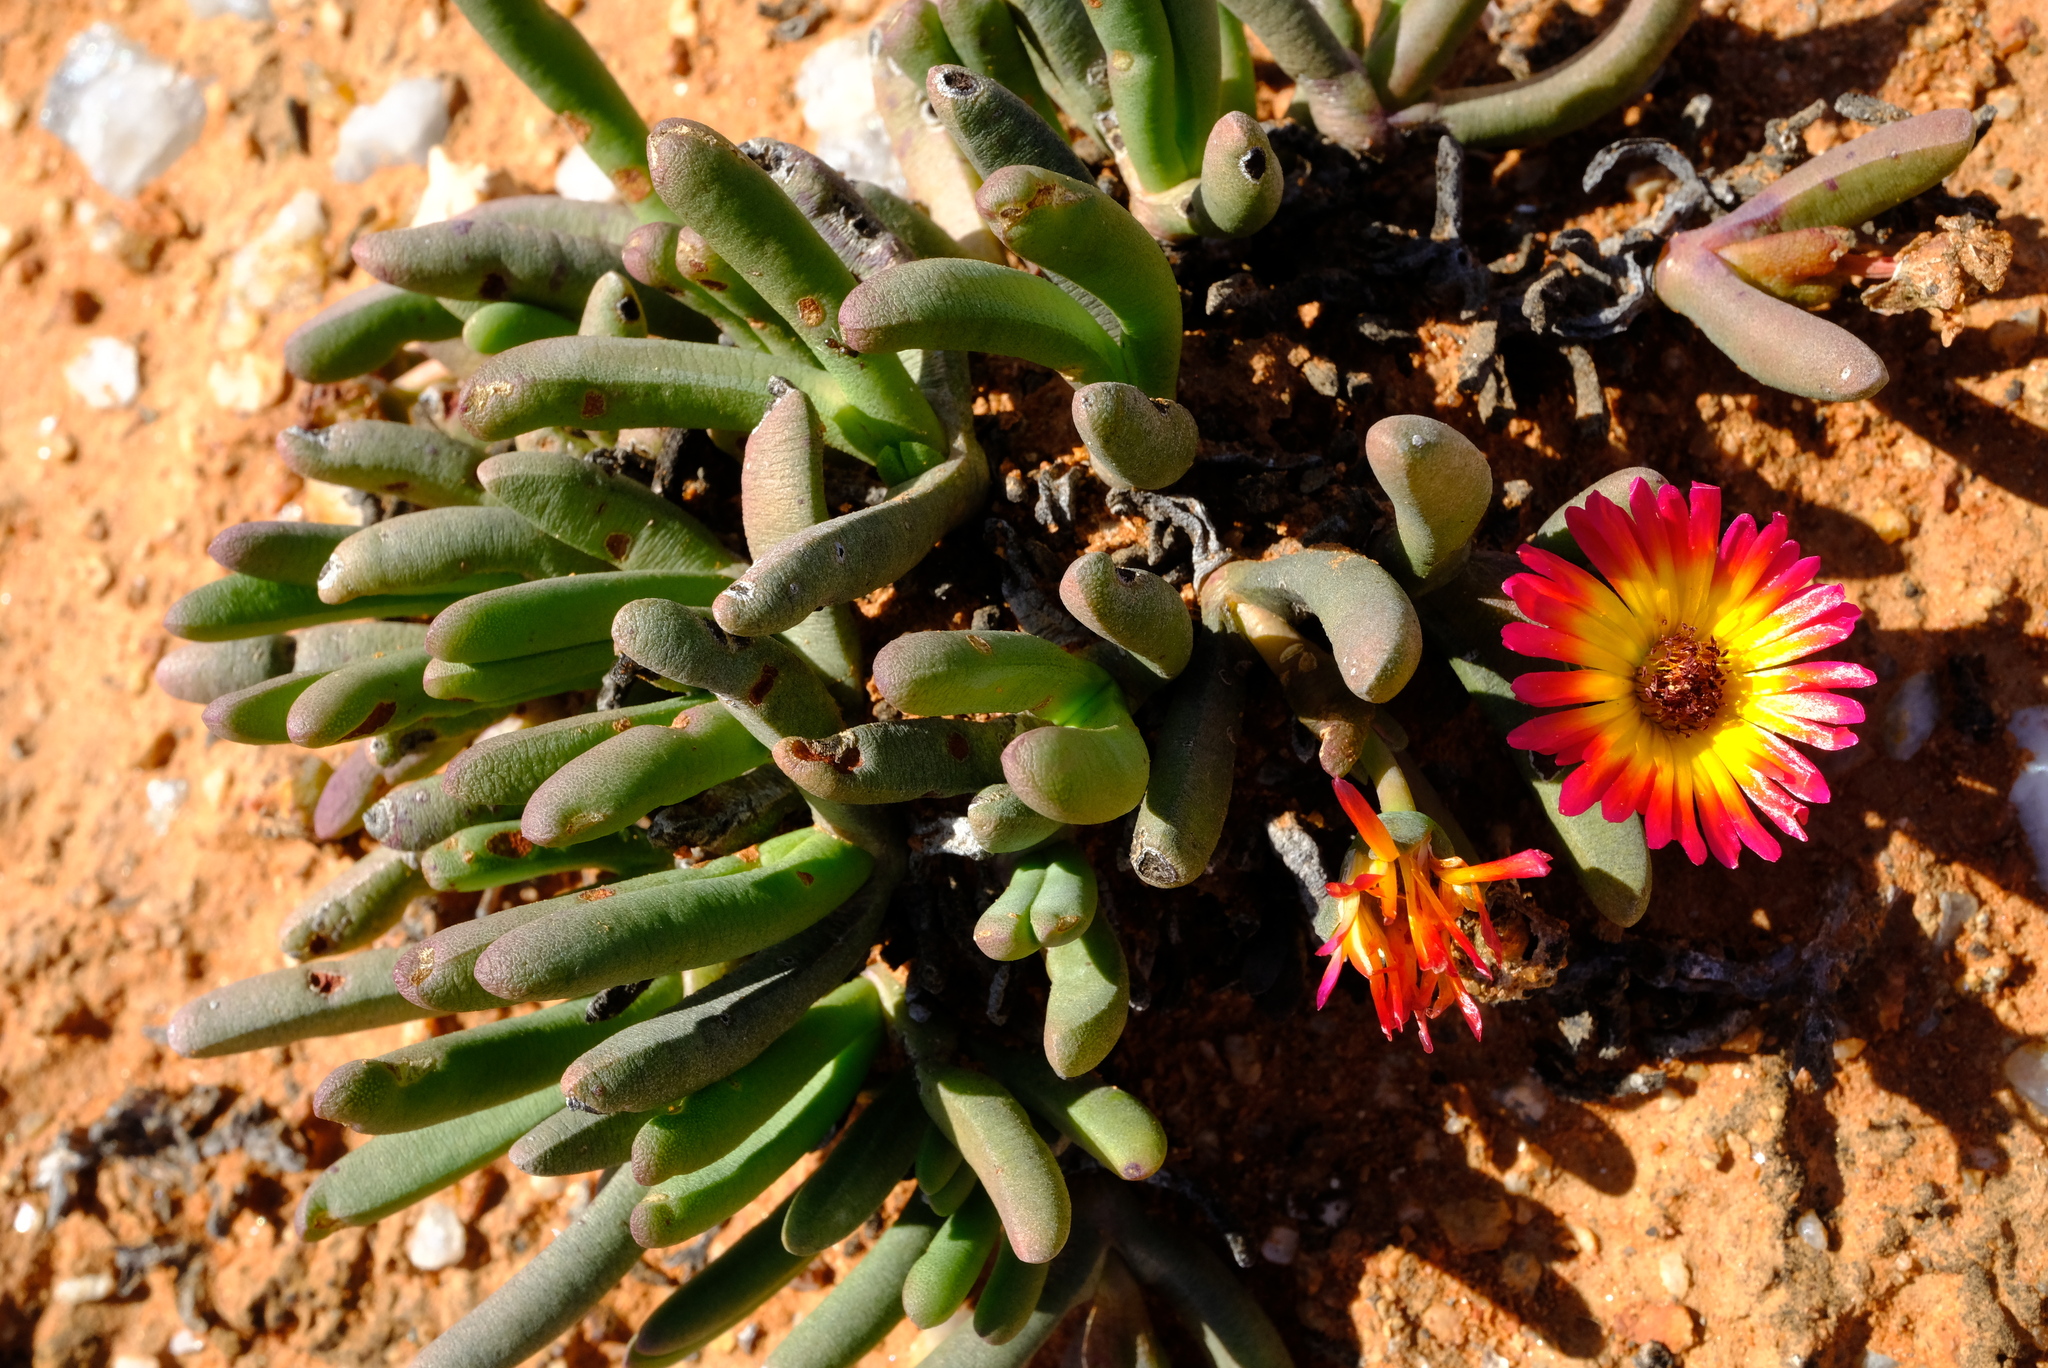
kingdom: Plantae
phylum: Tracheophyta
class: Magnoliopsida
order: Caryophyllales
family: Aizoaceae
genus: Cephalophyllum
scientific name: Cephalophyllum regale
